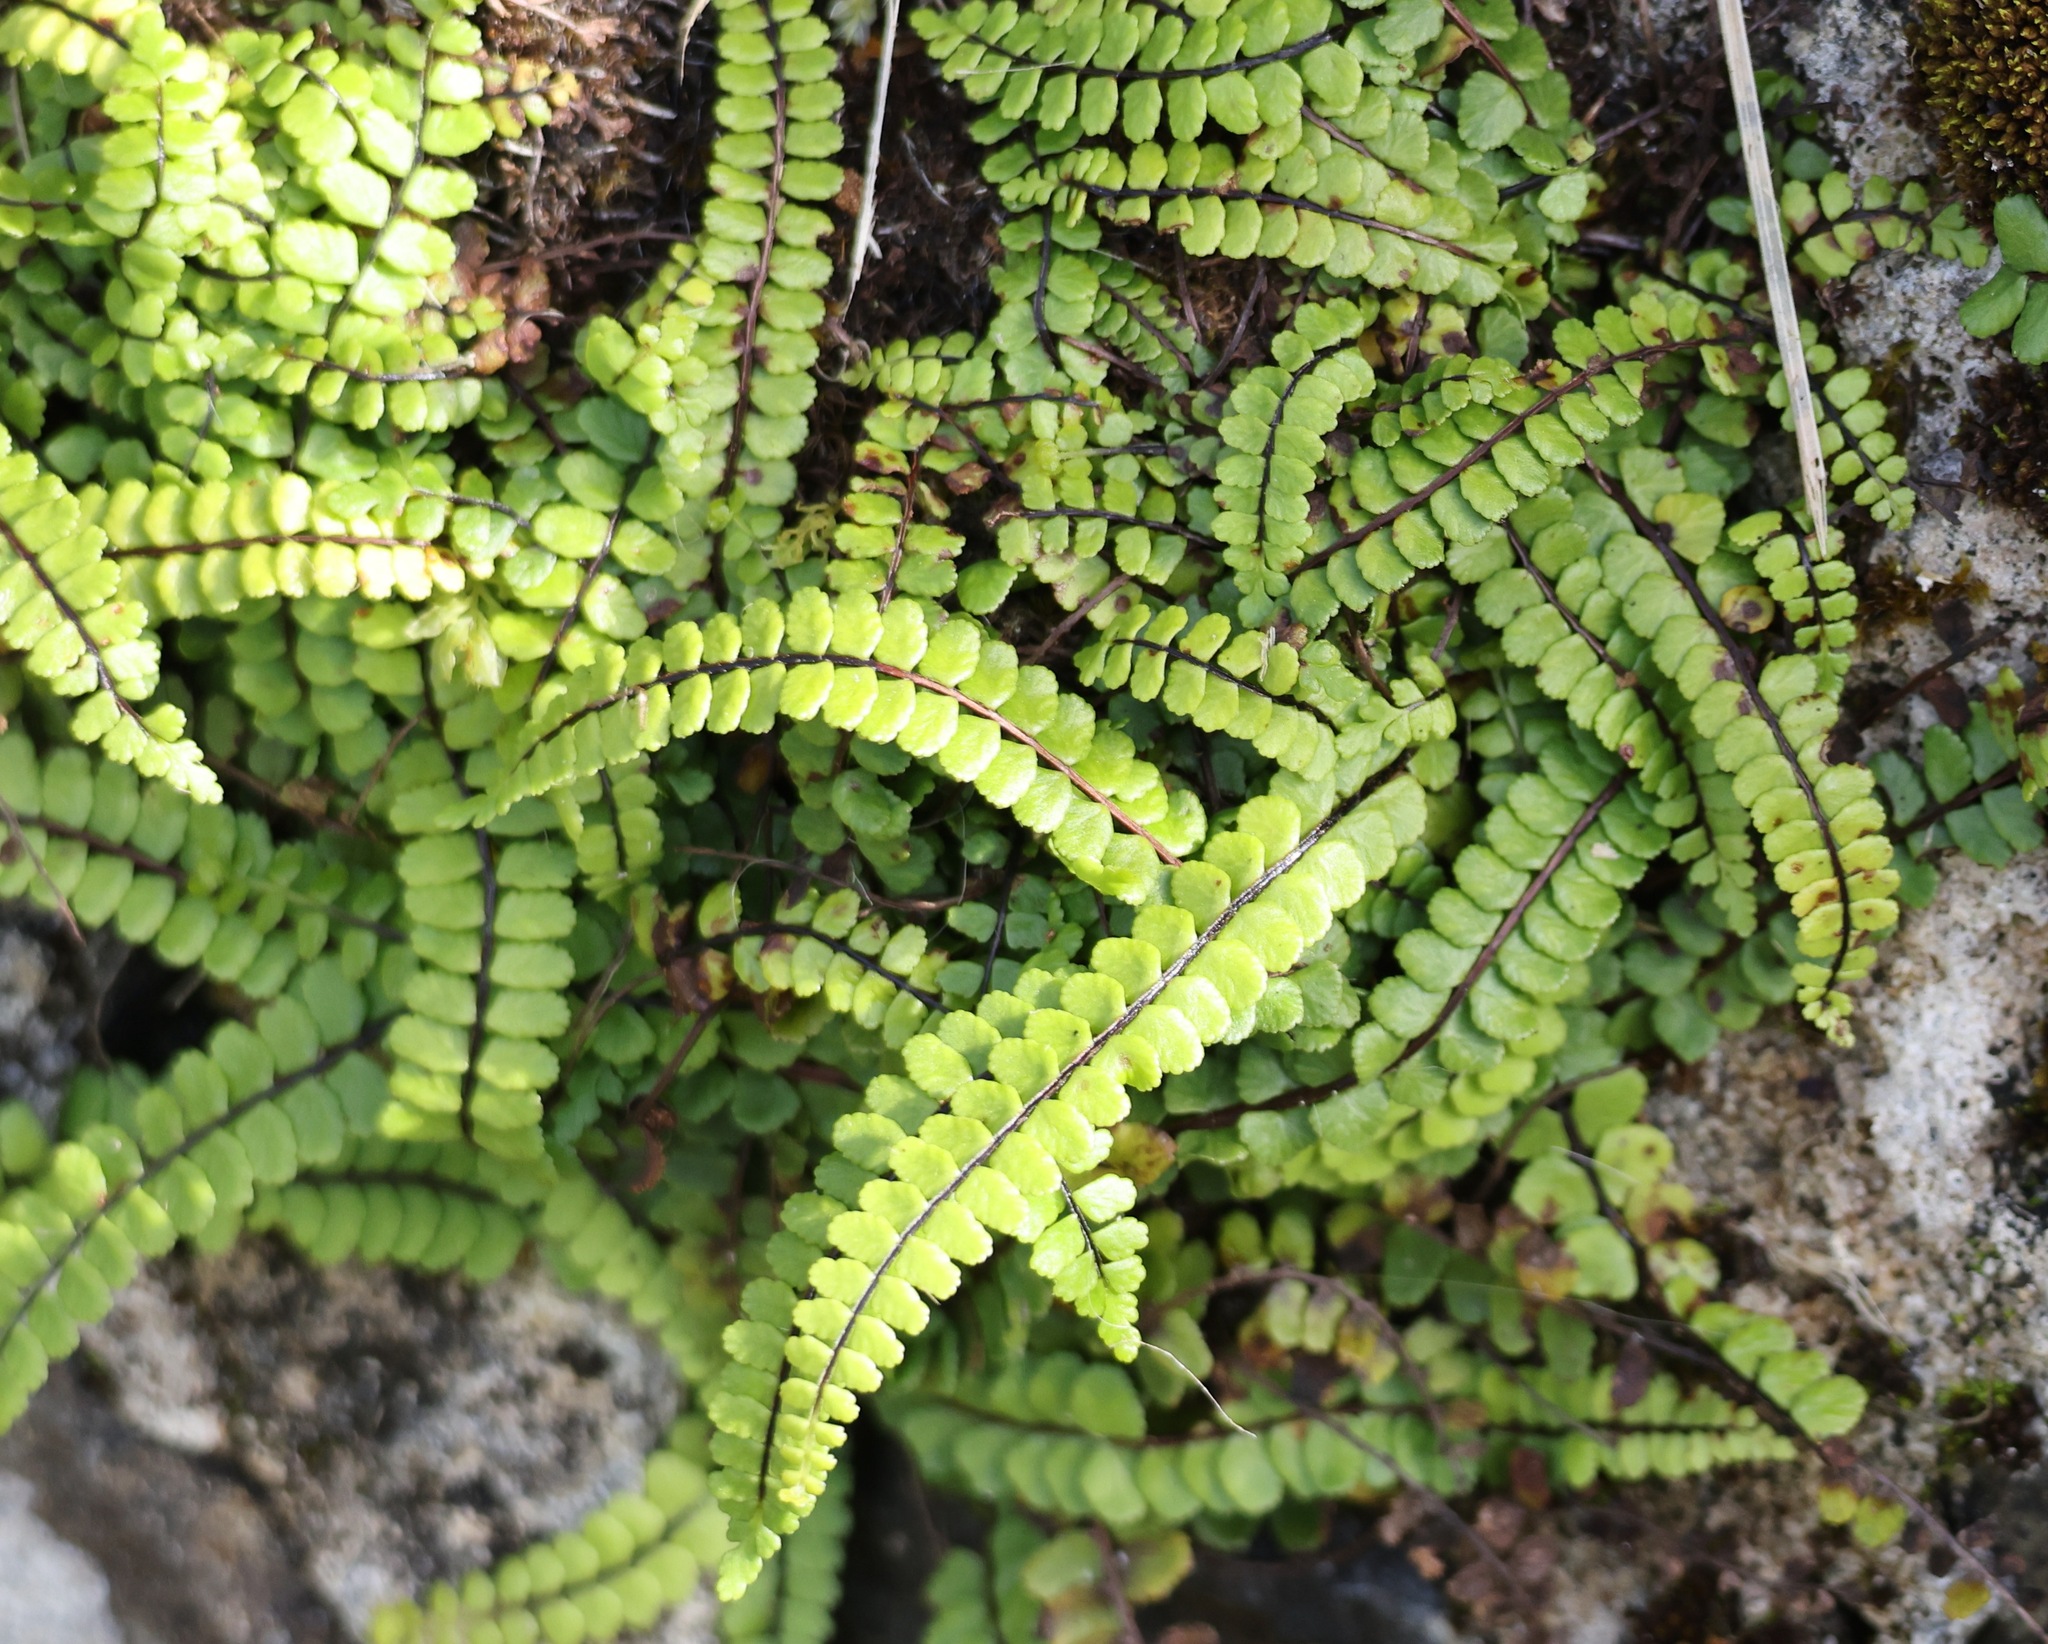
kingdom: Plantae
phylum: Tracheophyta
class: Polypodiopsida
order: Polypodiales
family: Aspleniaceae
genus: Asplenium
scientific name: Asplenium trichomanes
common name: Maidenhair spleenwort
